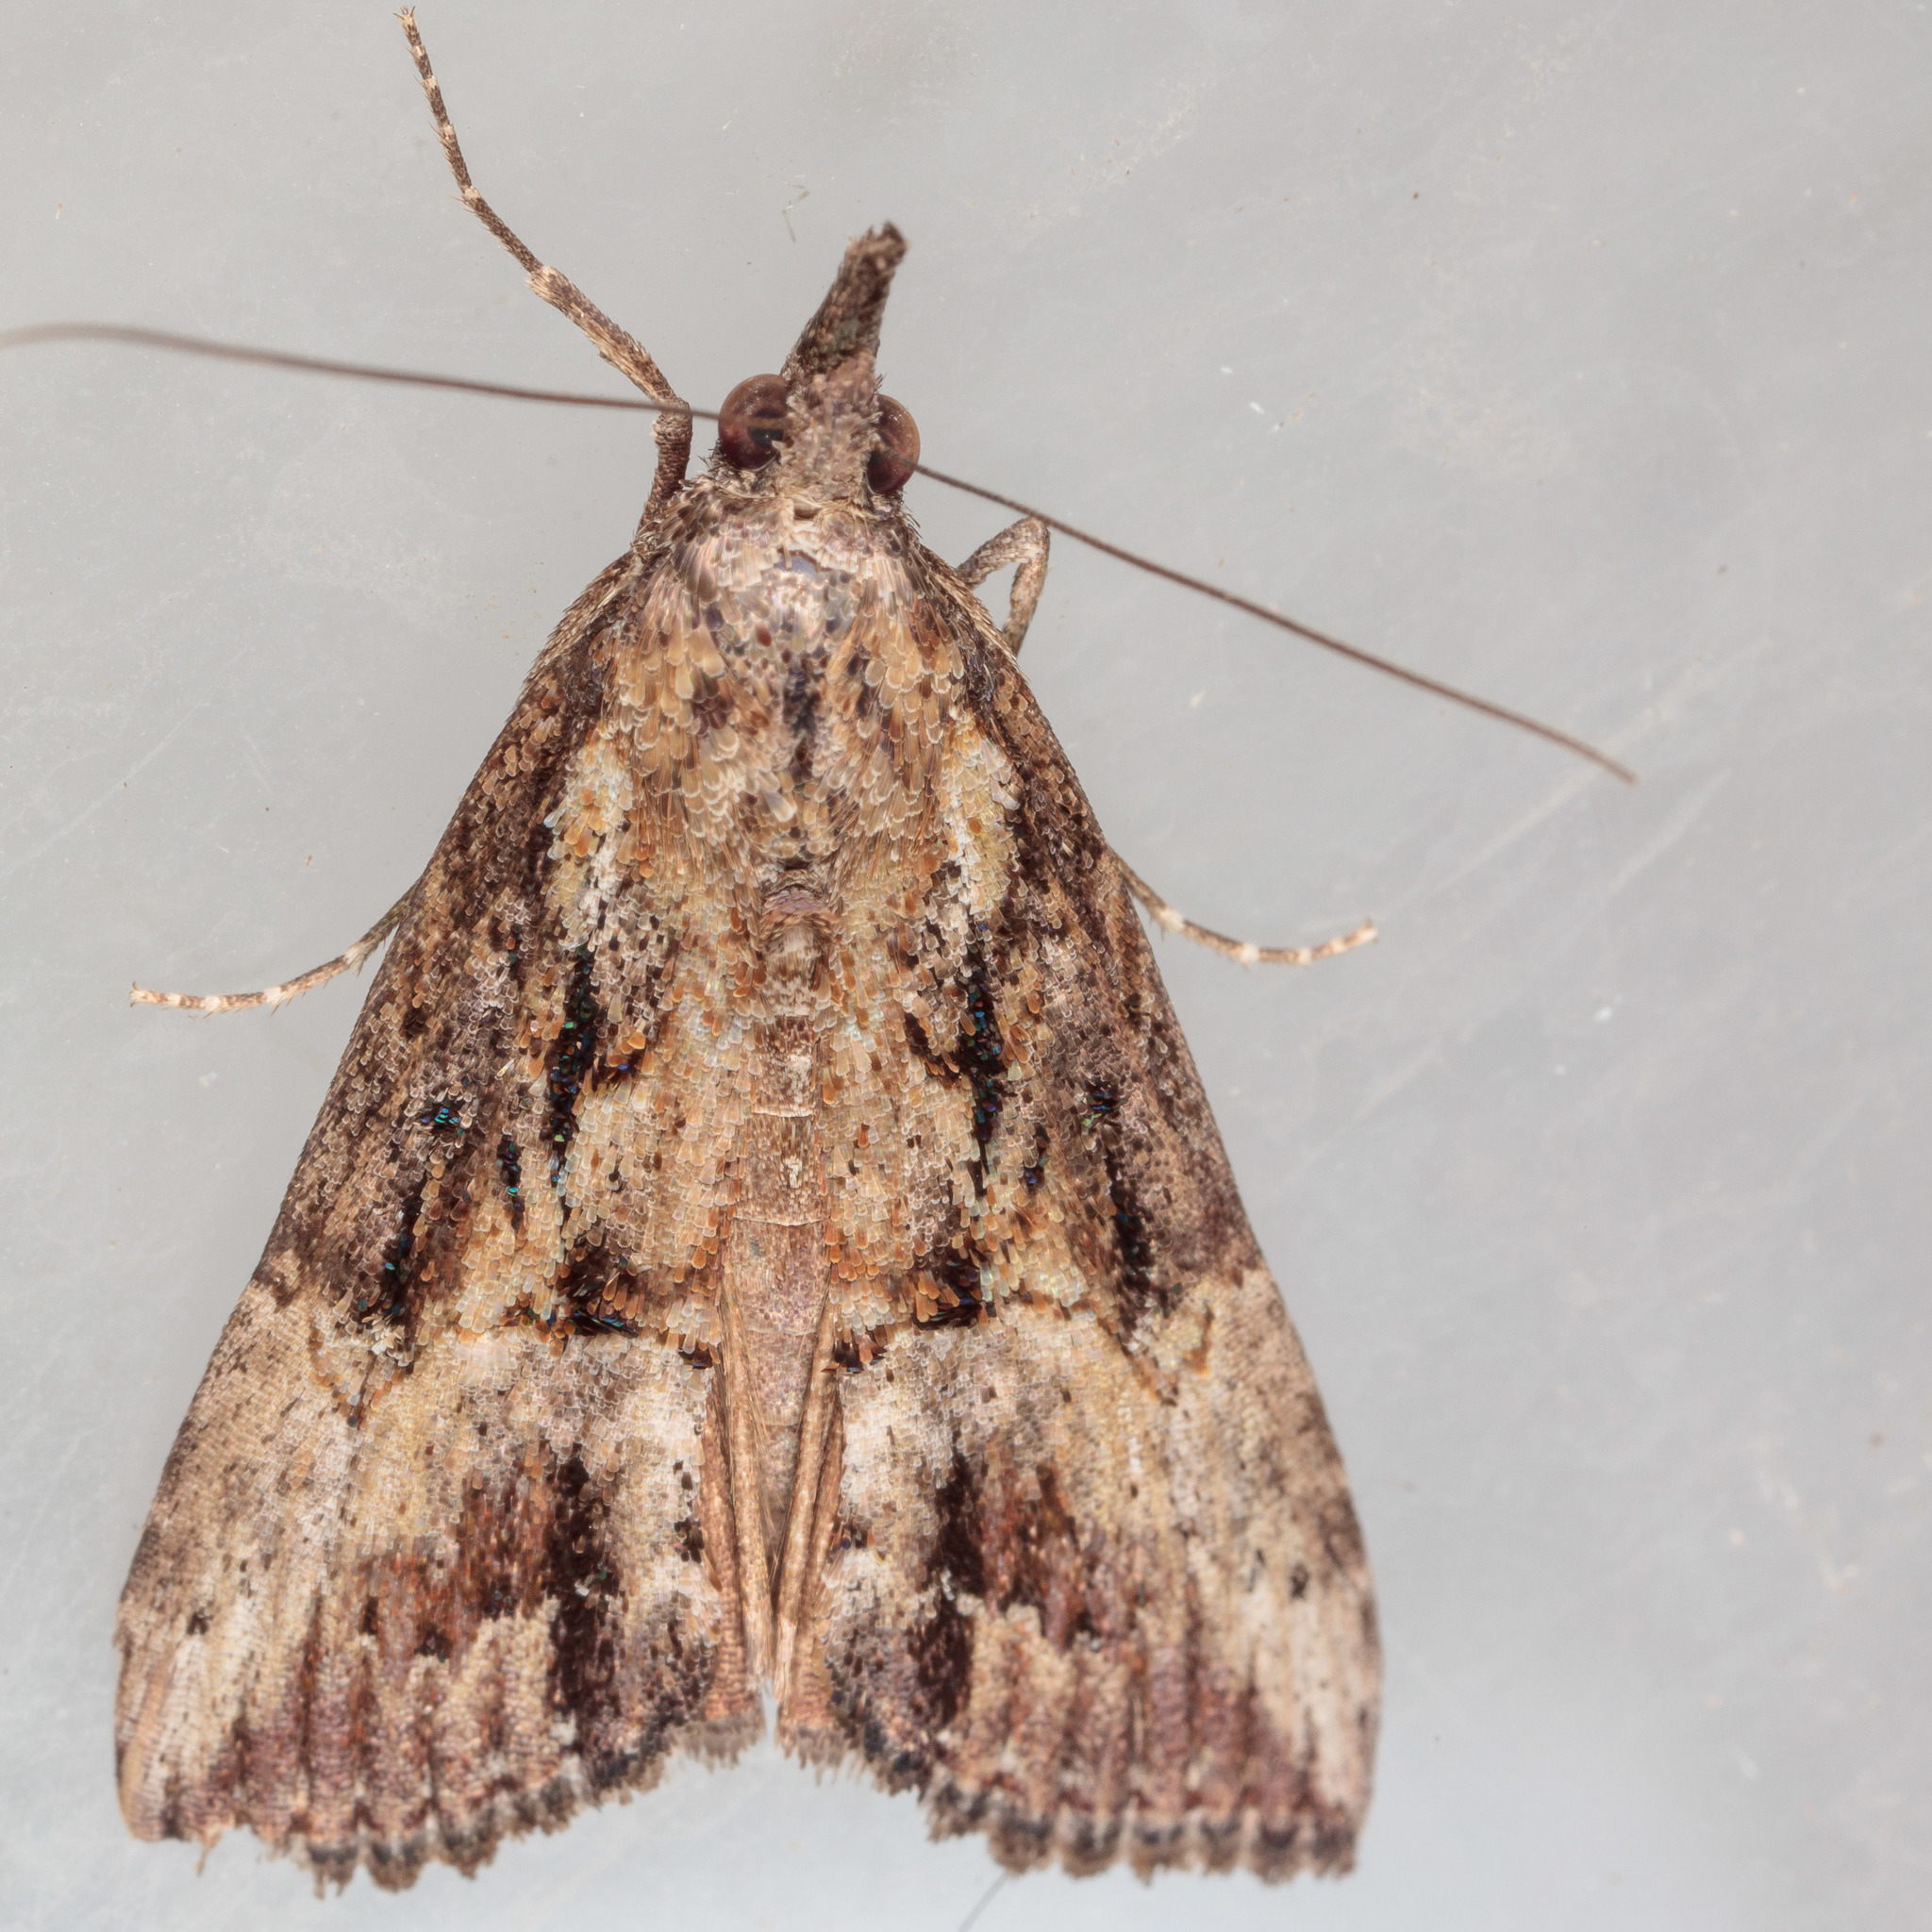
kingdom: Animalia
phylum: Arthropoda
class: Insecta
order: Lepidoptera
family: Erebidae
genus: Hypena
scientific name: Hypena scabra
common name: Green cloverworm
